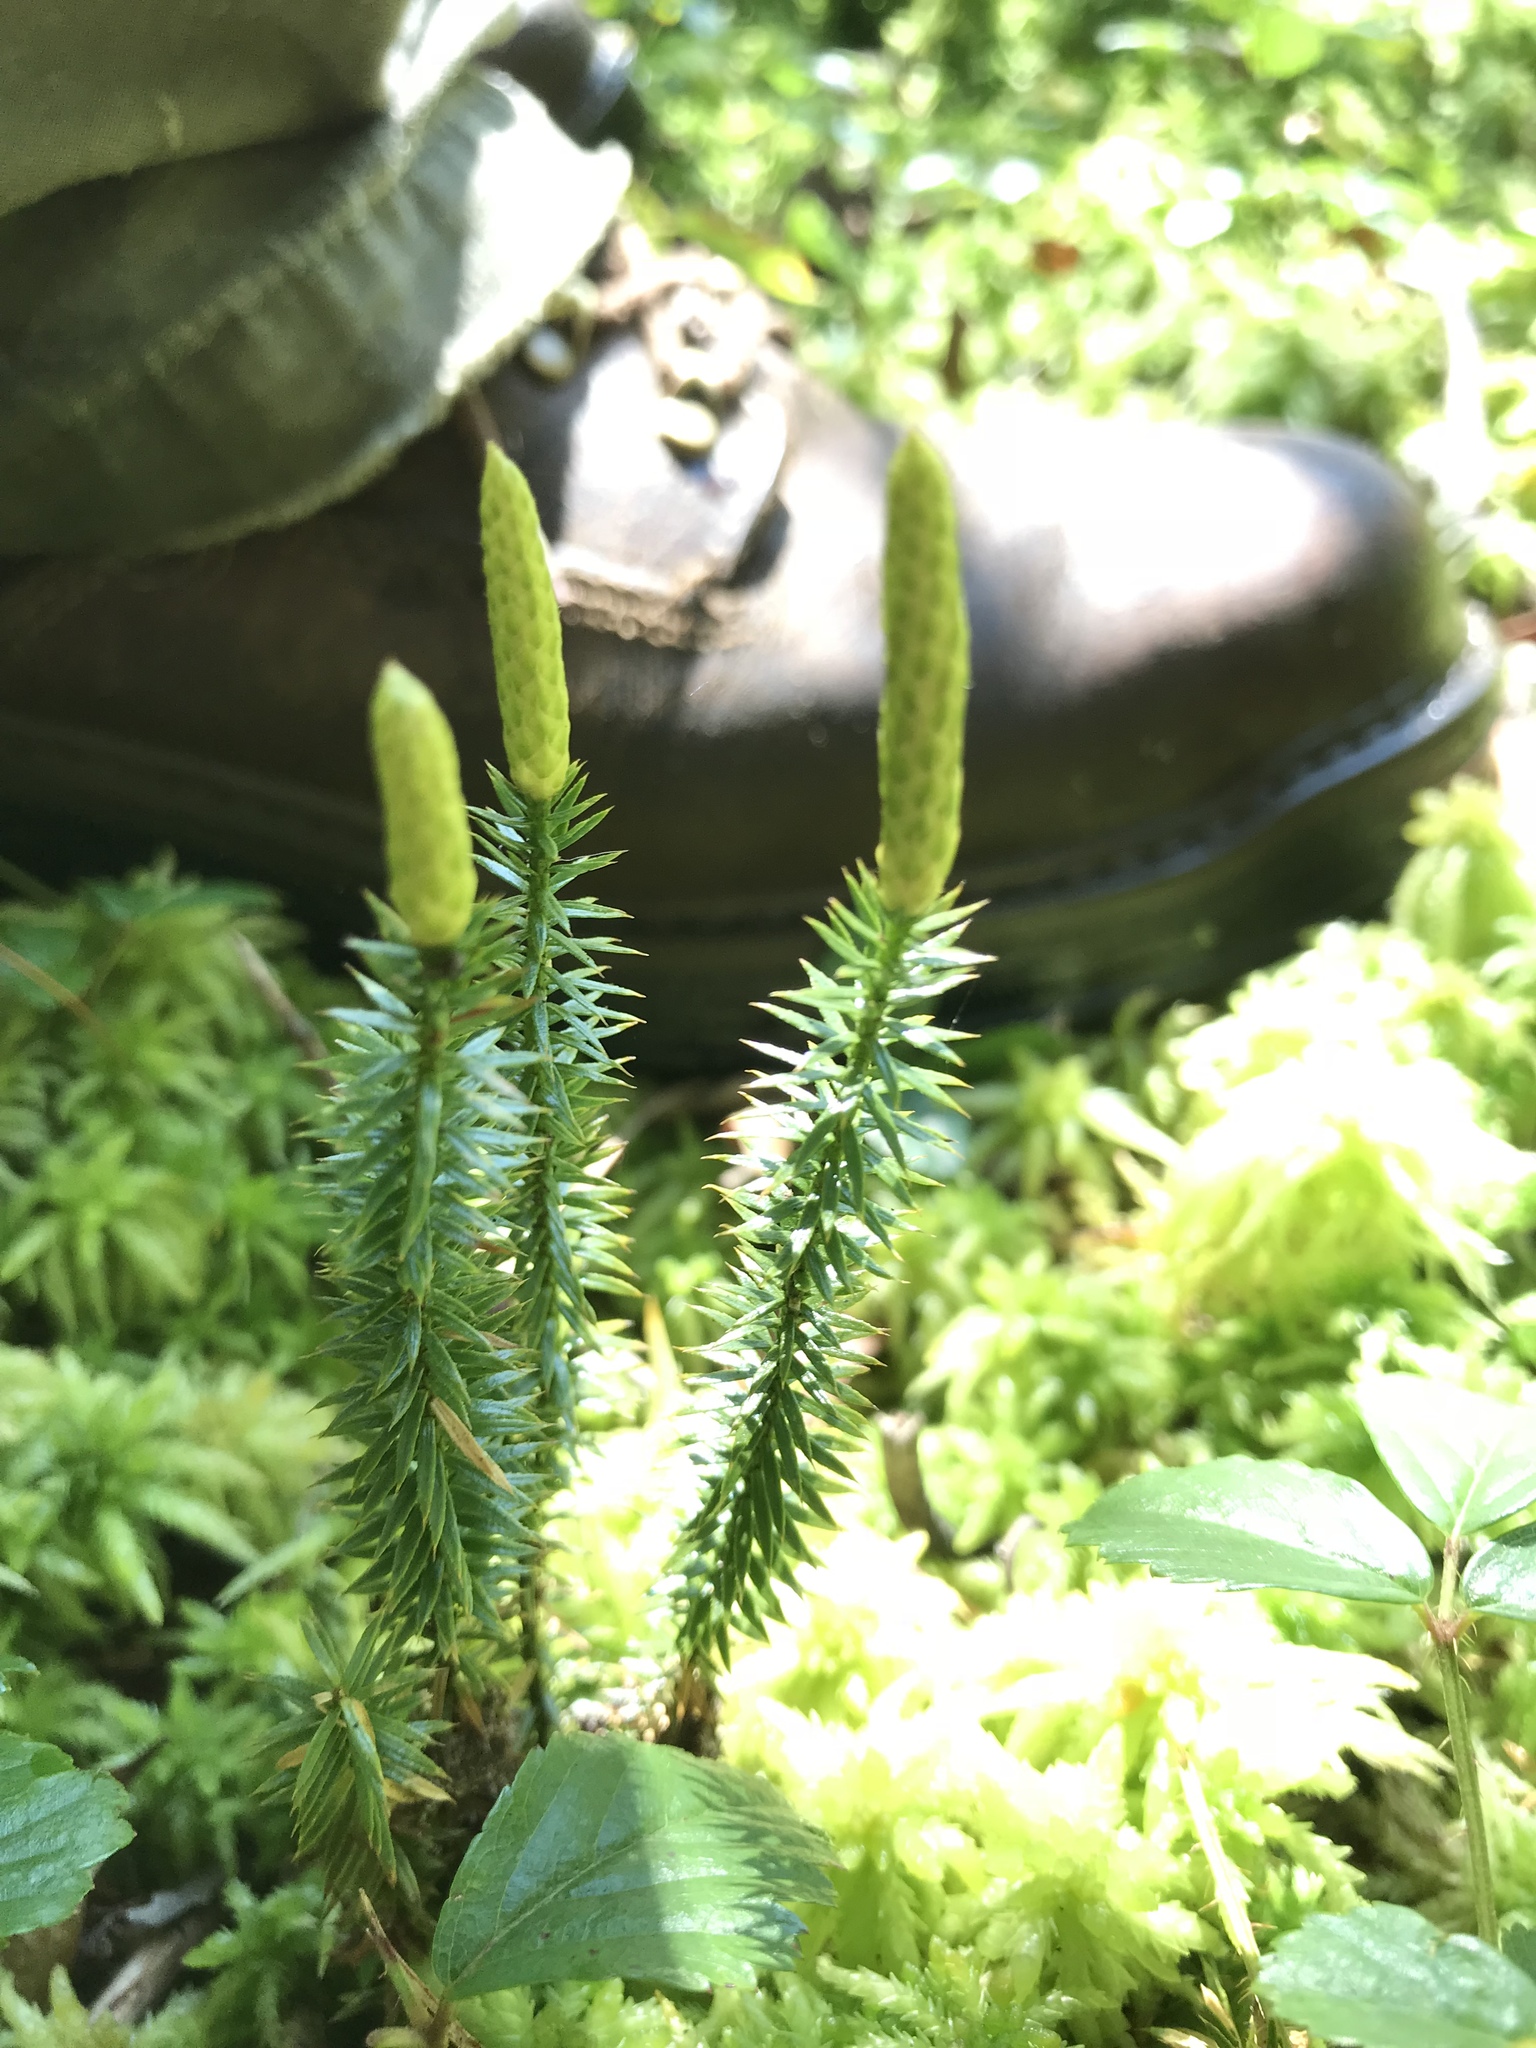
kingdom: Plantae
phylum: Tracheophyta
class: Lycopodiopsida
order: Lycopodiales
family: Lycopodiaceae
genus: Spinulum
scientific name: Spinulum annotinum
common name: Interrupted club-moss
